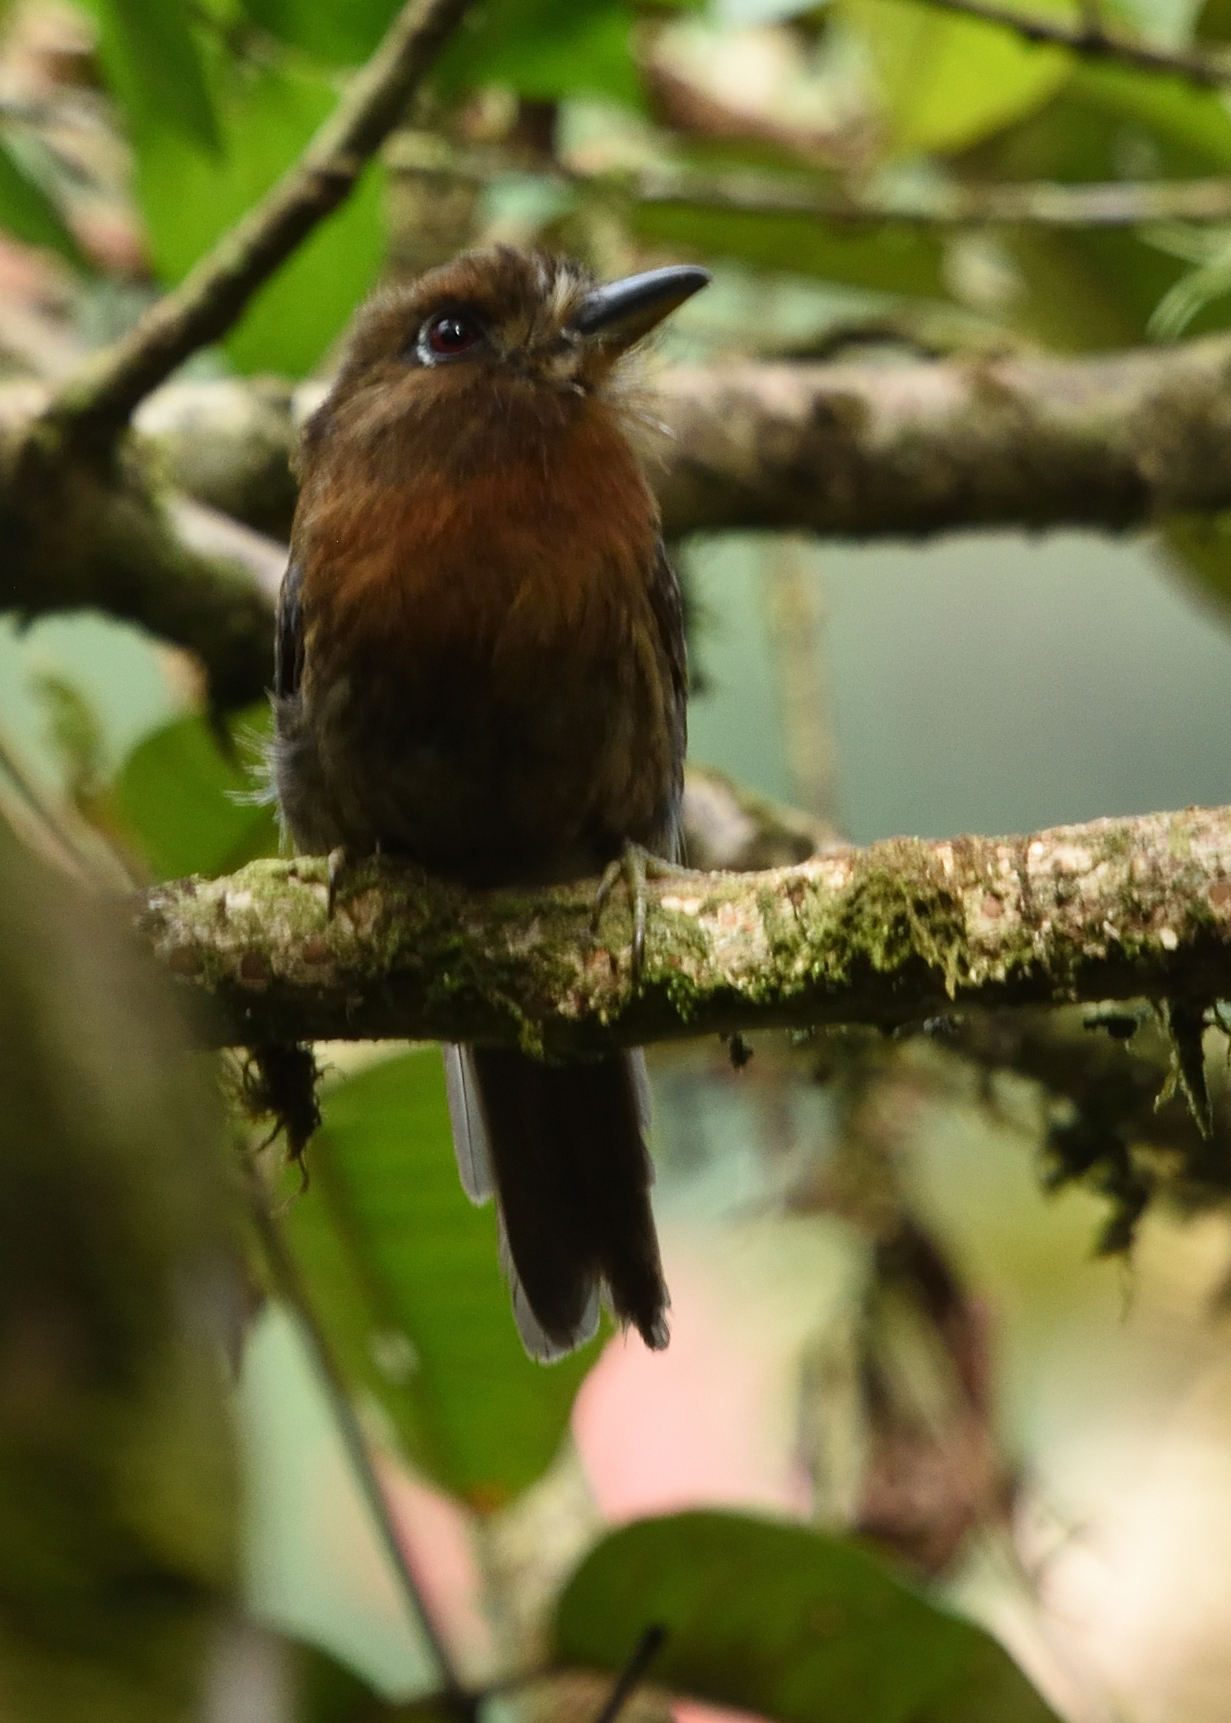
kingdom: Animalia
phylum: Chordata
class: Aves
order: Piciformes
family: Bucconidae
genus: Malacoptila
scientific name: Malacoptila mystacalis
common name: Moustached puffbird
